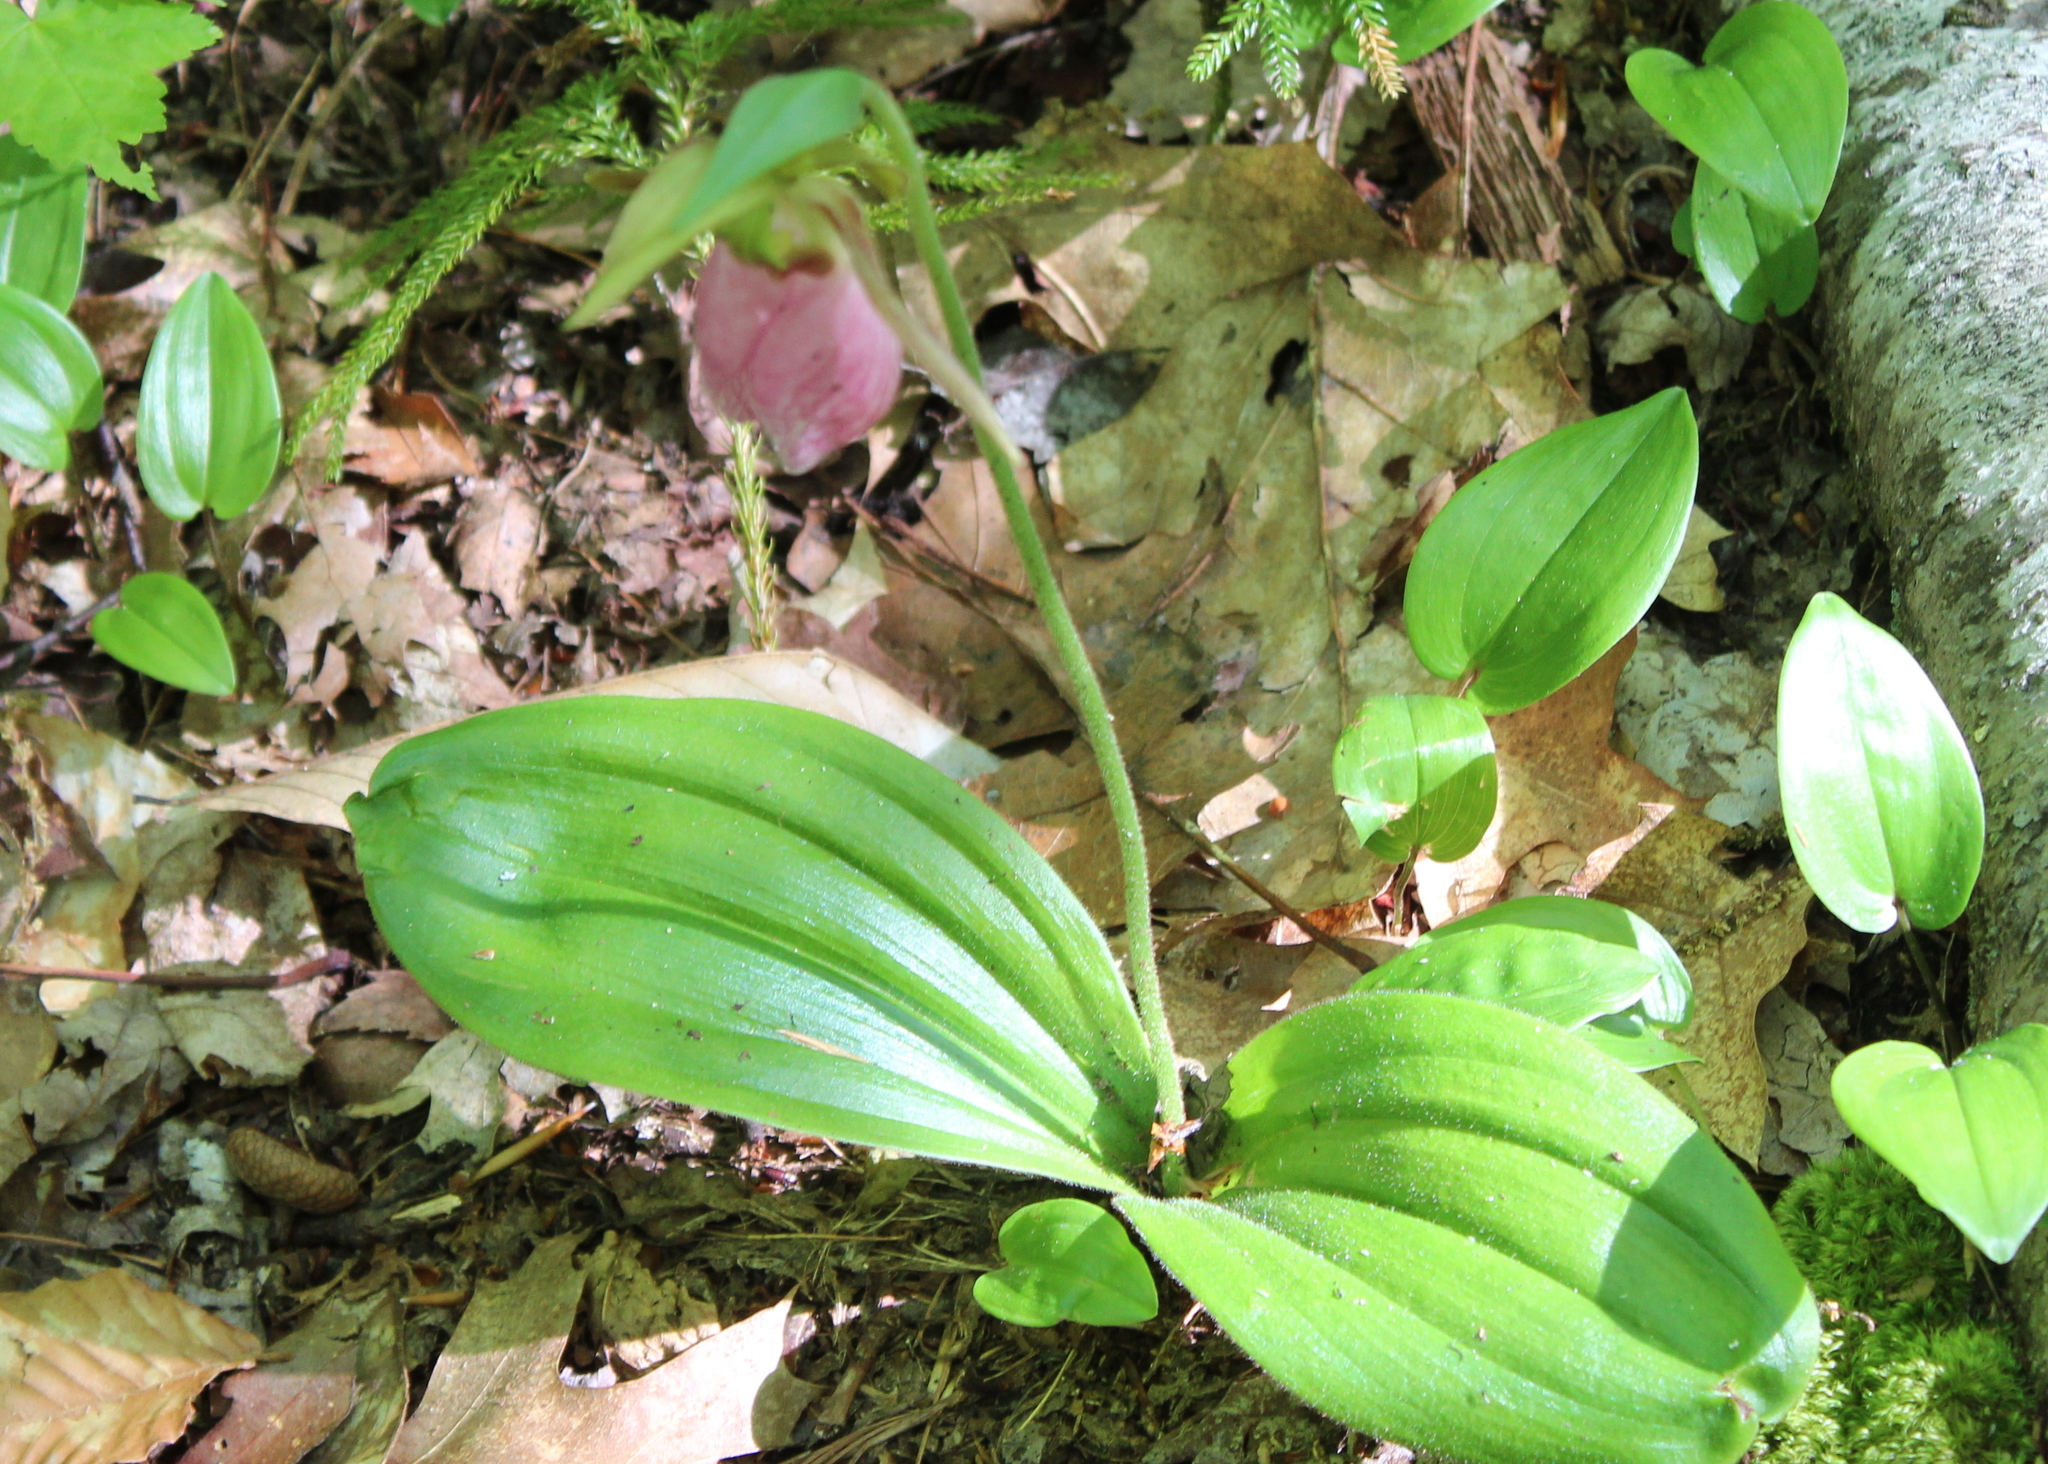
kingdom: Plantae
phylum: Tracheophyta
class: Liliopsida
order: Asparagales
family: Orchidaceae
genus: Cypripedium
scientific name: Cypripedium acaule
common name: Pink lady's-slipper
